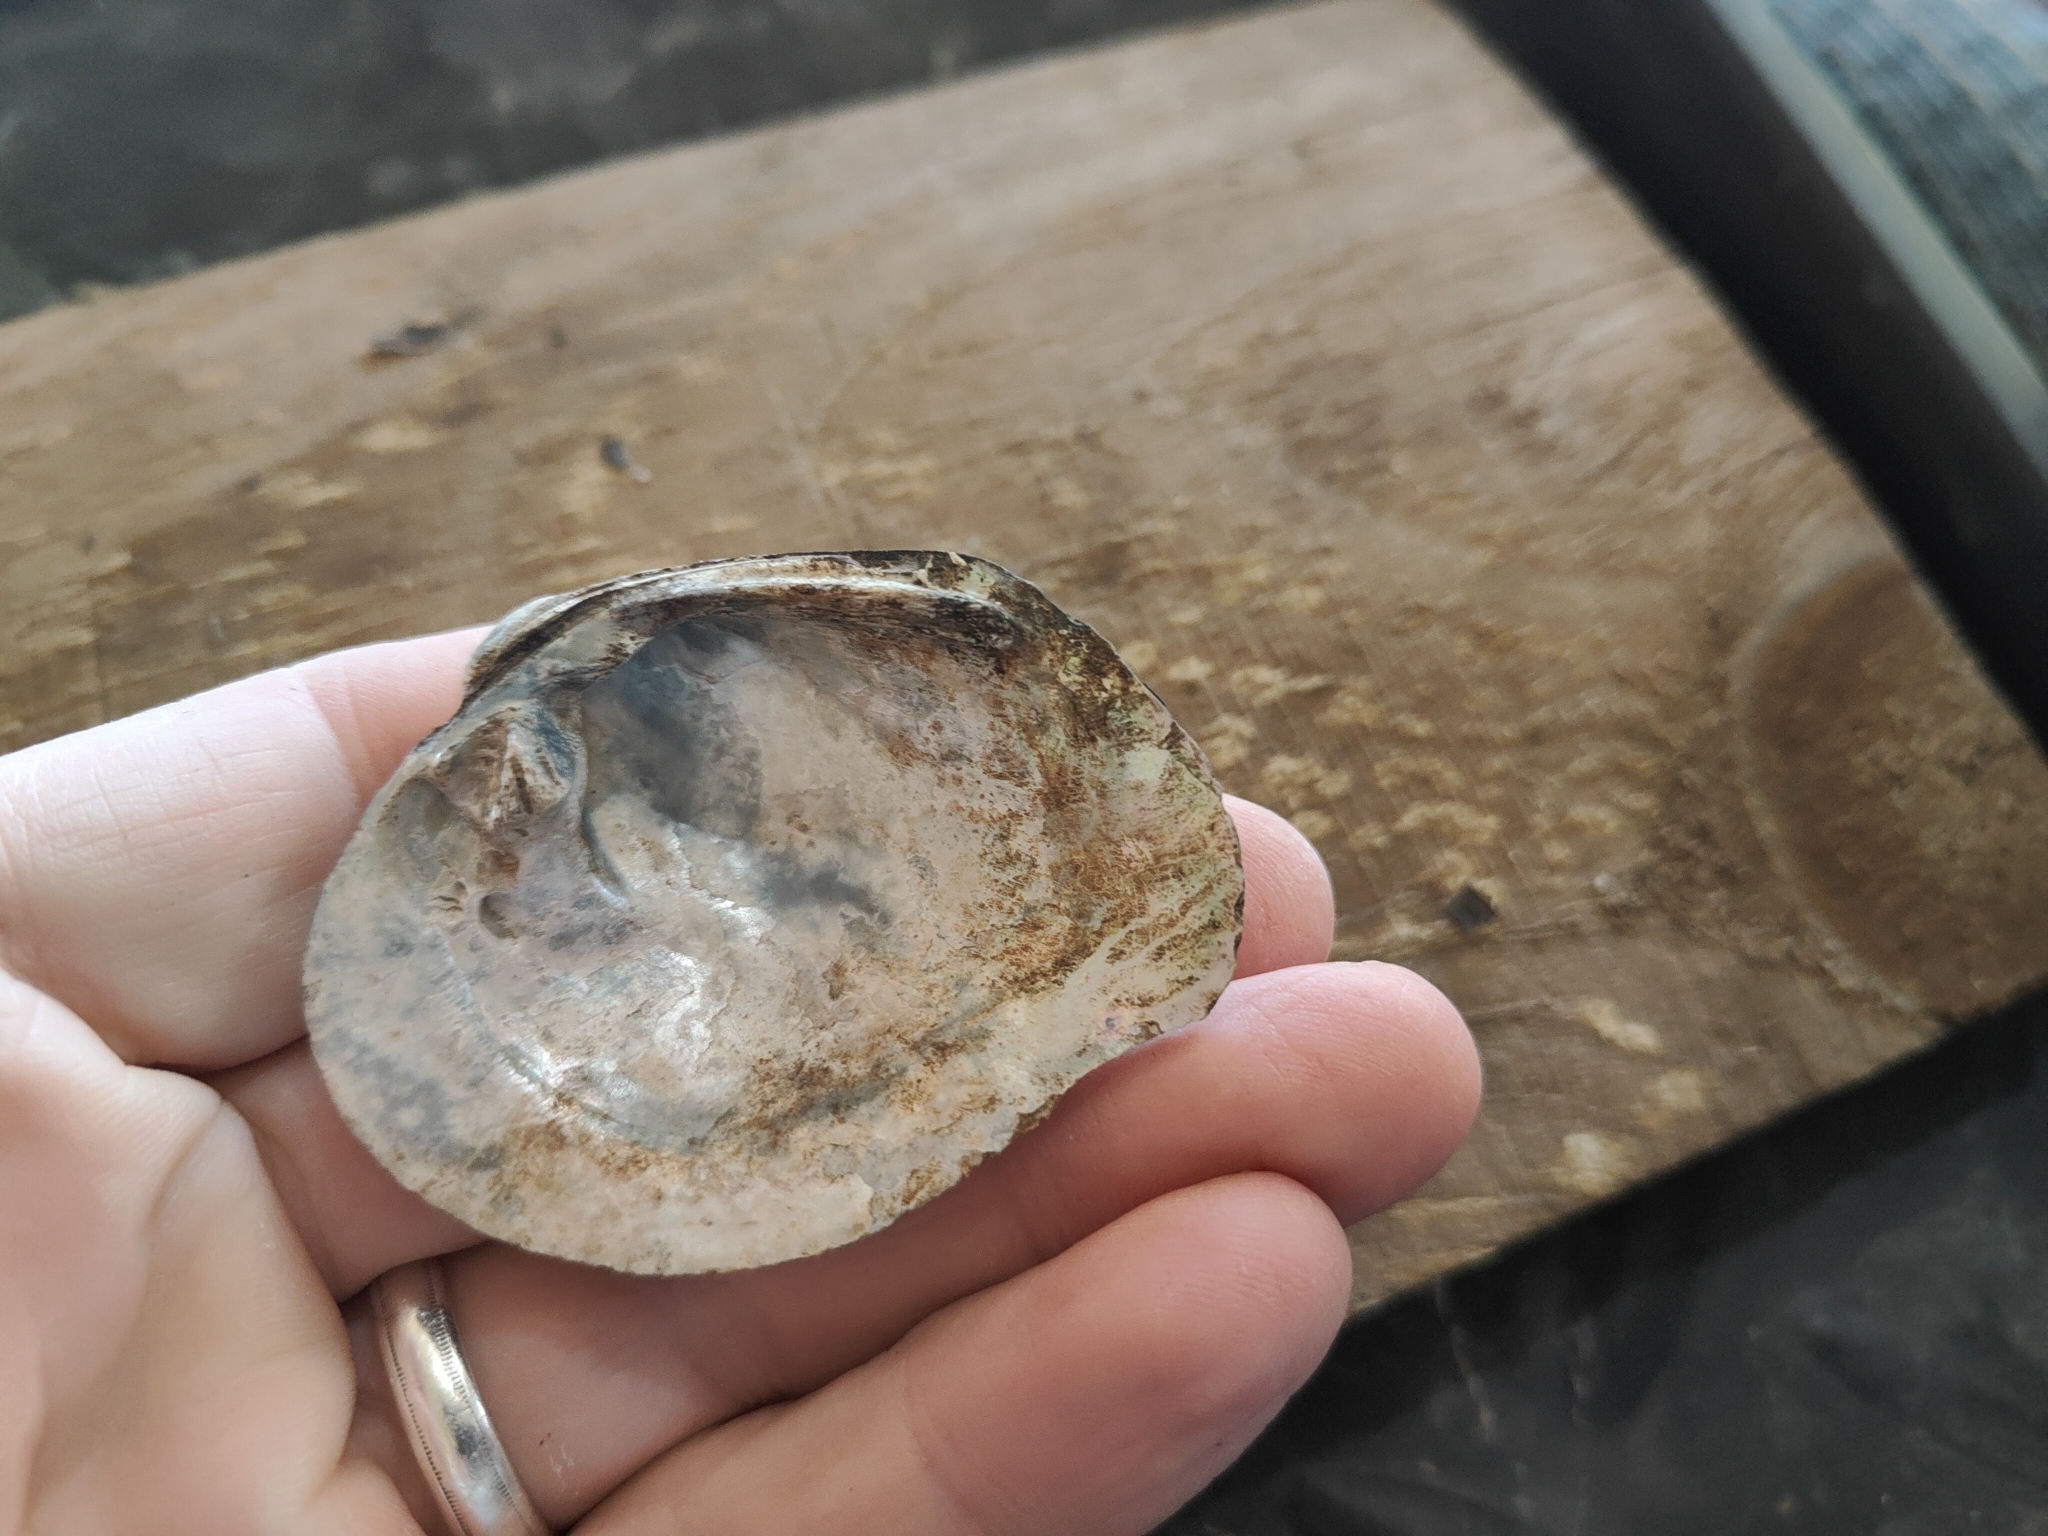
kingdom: Animalia
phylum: Mollusca
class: Bivalvia
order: Unionida
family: Unionidae
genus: Quadrula
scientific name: Quadrula quadrula
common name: Mapleleaf
